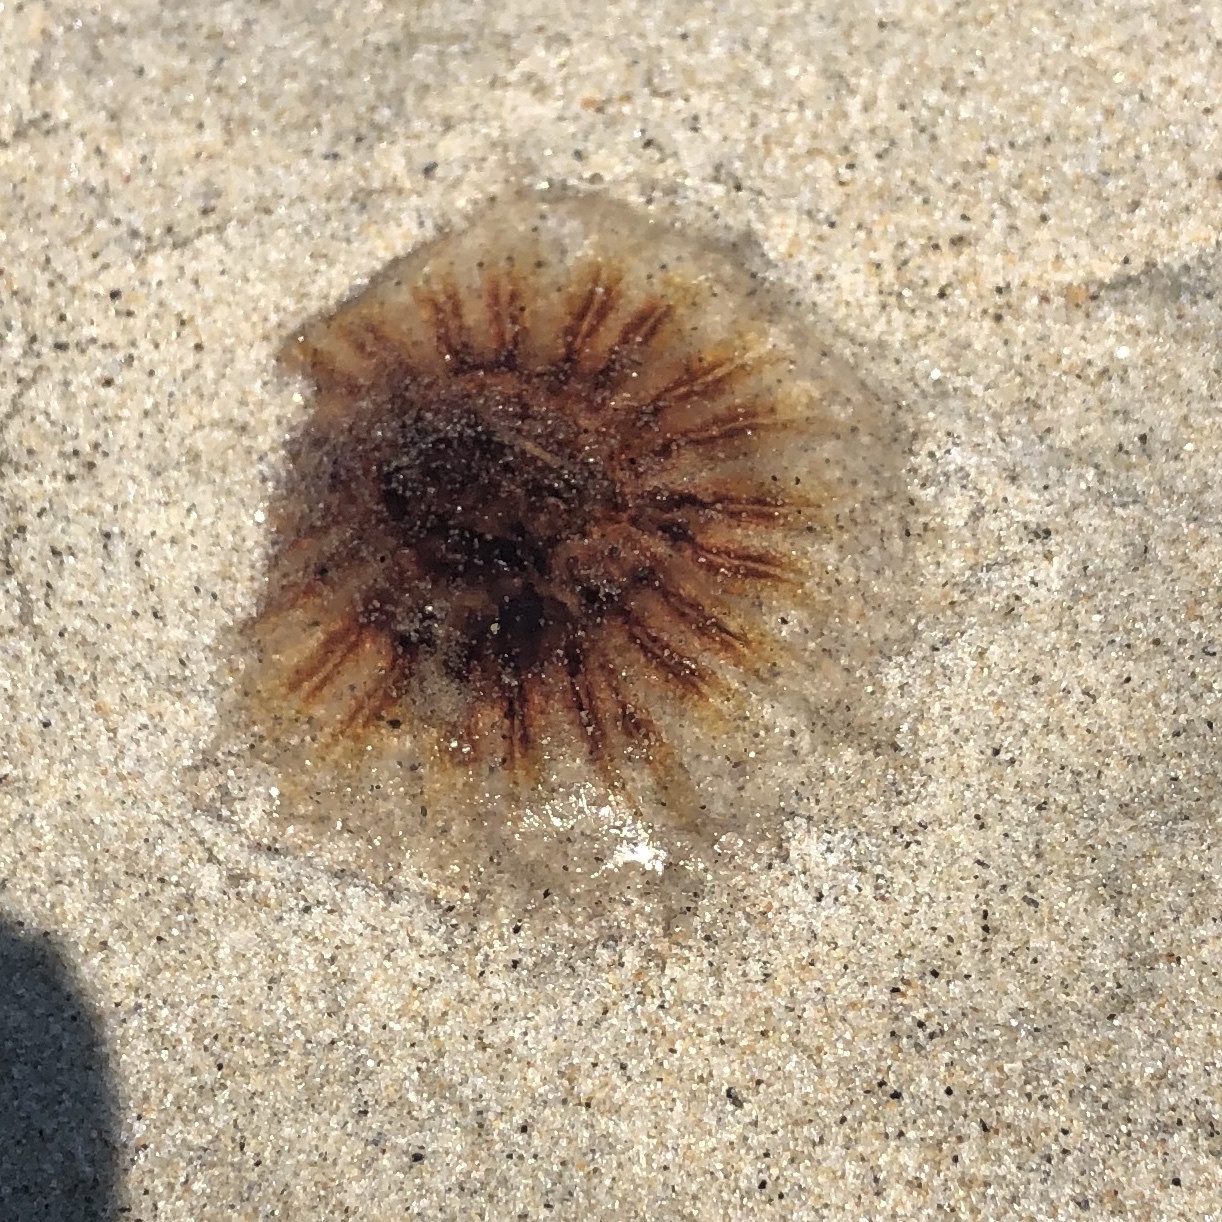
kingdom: Animalia
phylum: Cnidaria
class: Scyphozoa
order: Semaeostomeae
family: Cyaneidae
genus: Cyanea
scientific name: Cyanea versicolor
